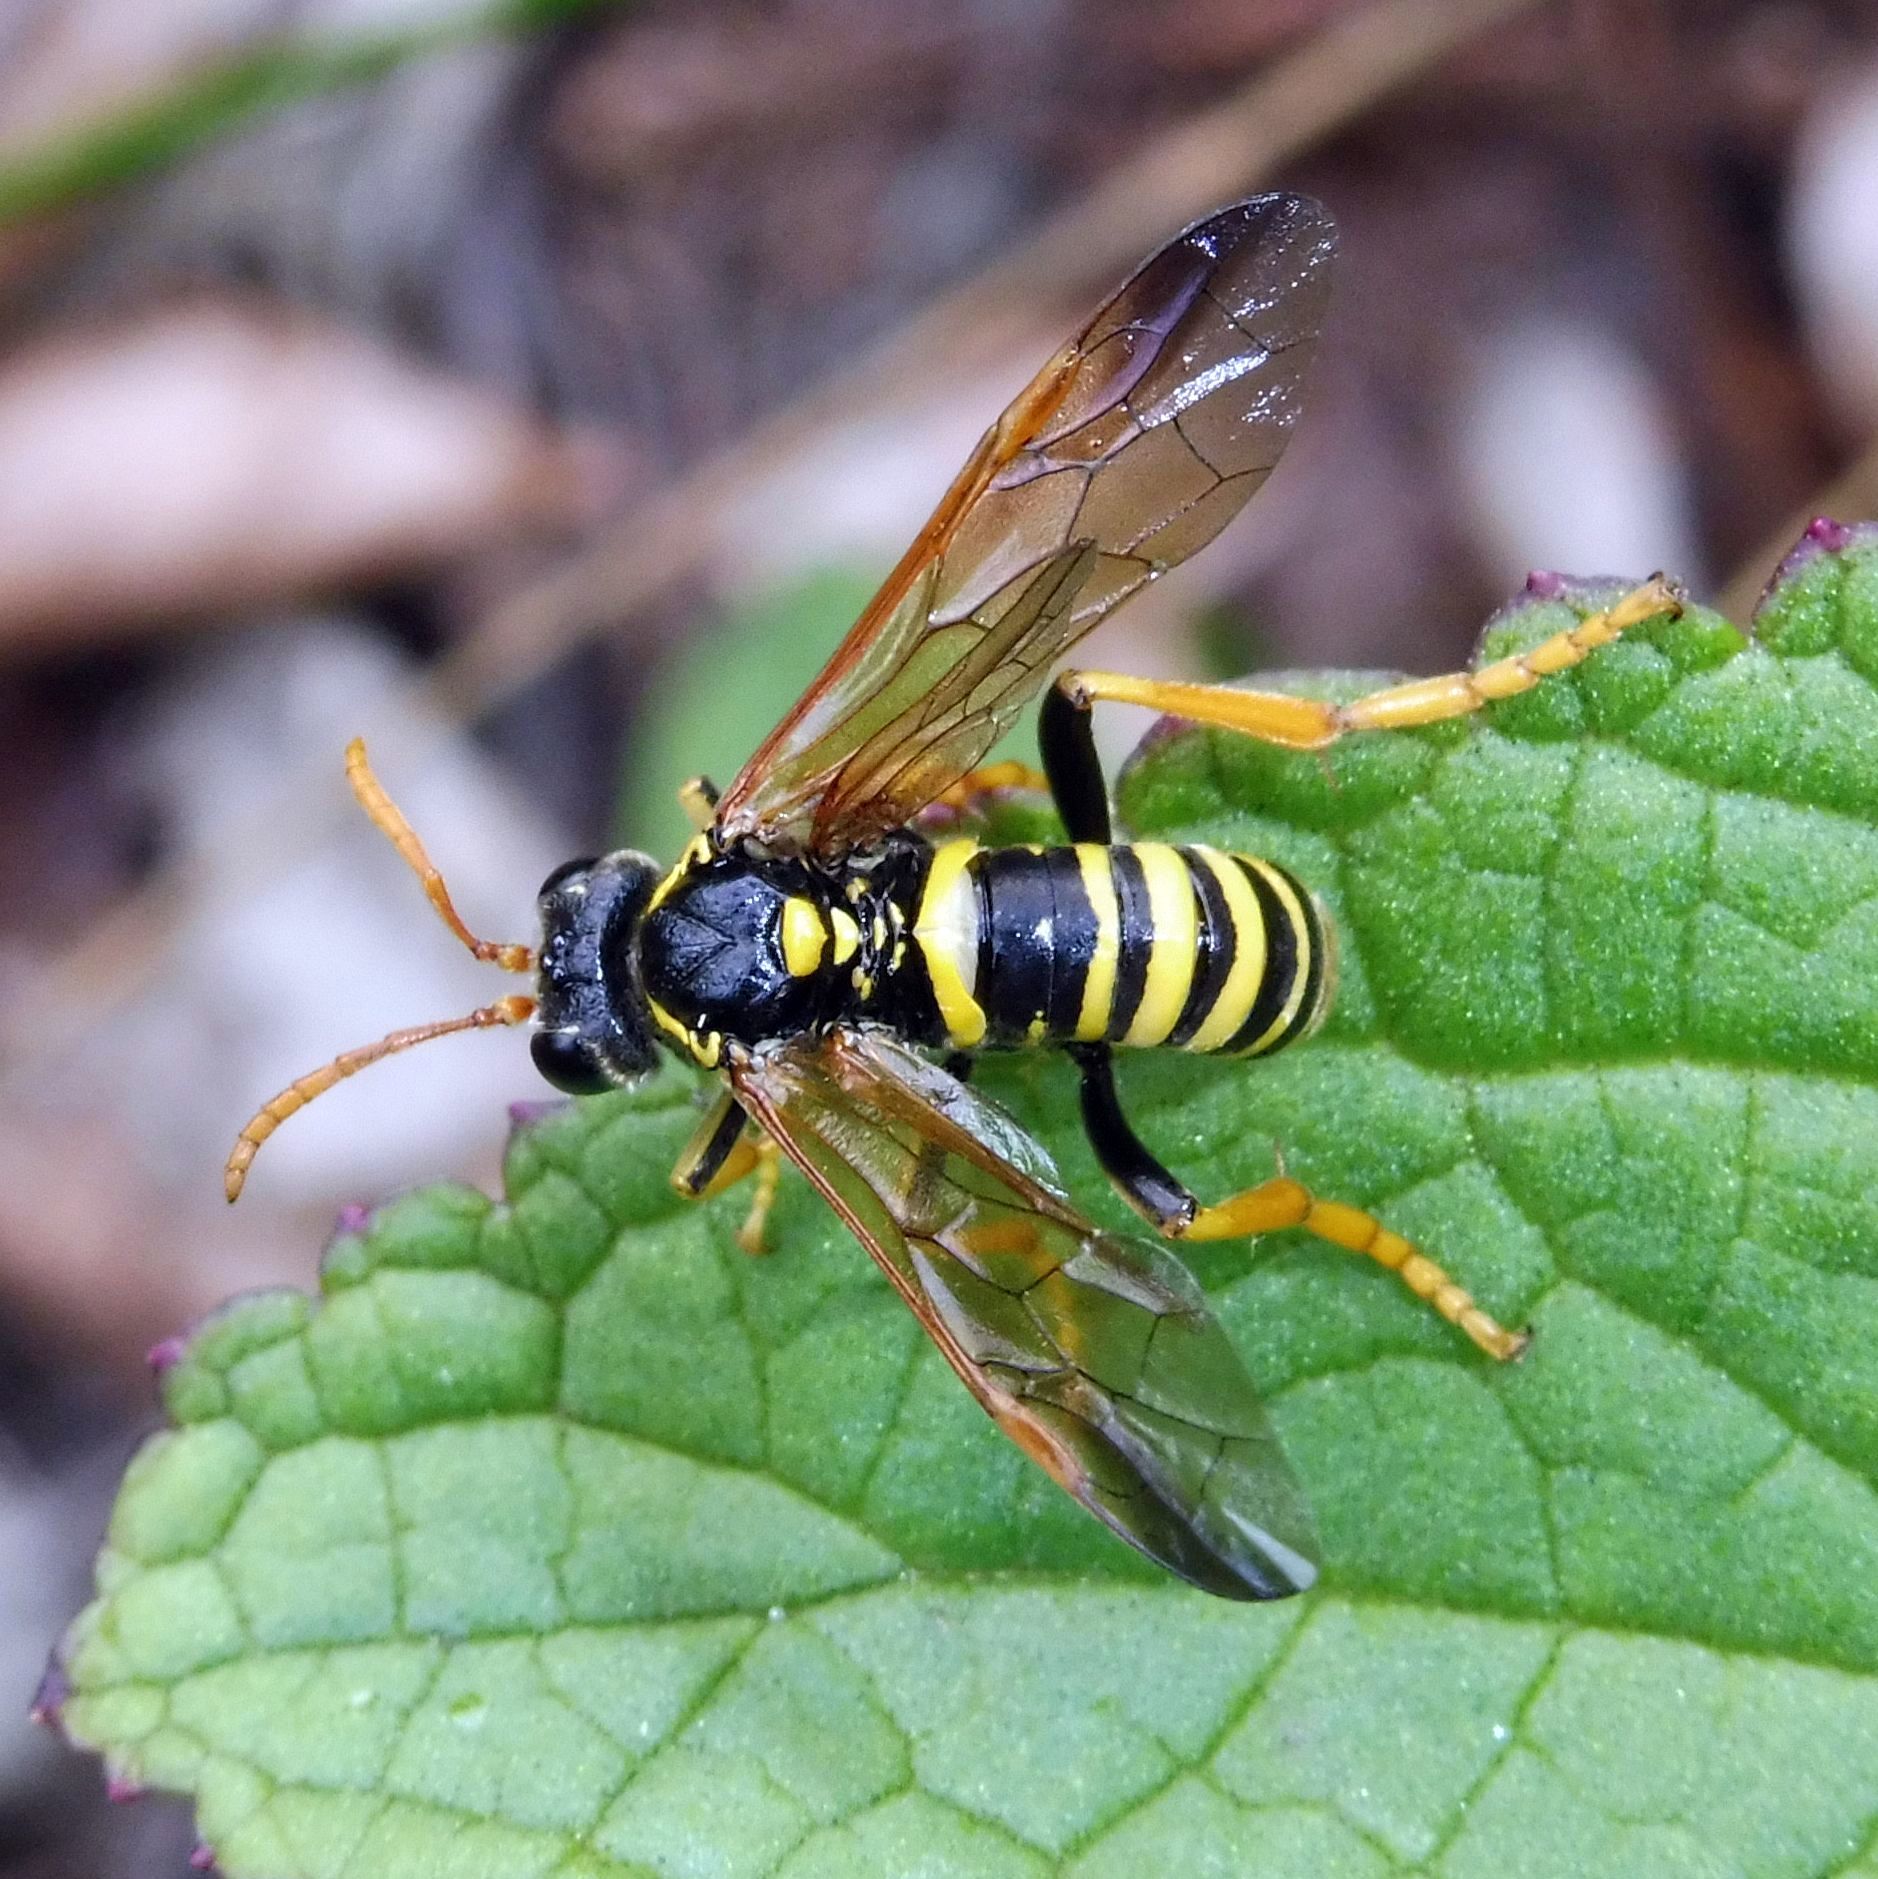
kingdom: Animalia
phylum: Arthropoda
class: Insecta
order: Hymenoptera
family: Tenthredinidae
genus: Tenthredo
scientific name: Tenthredo scrophulariae
